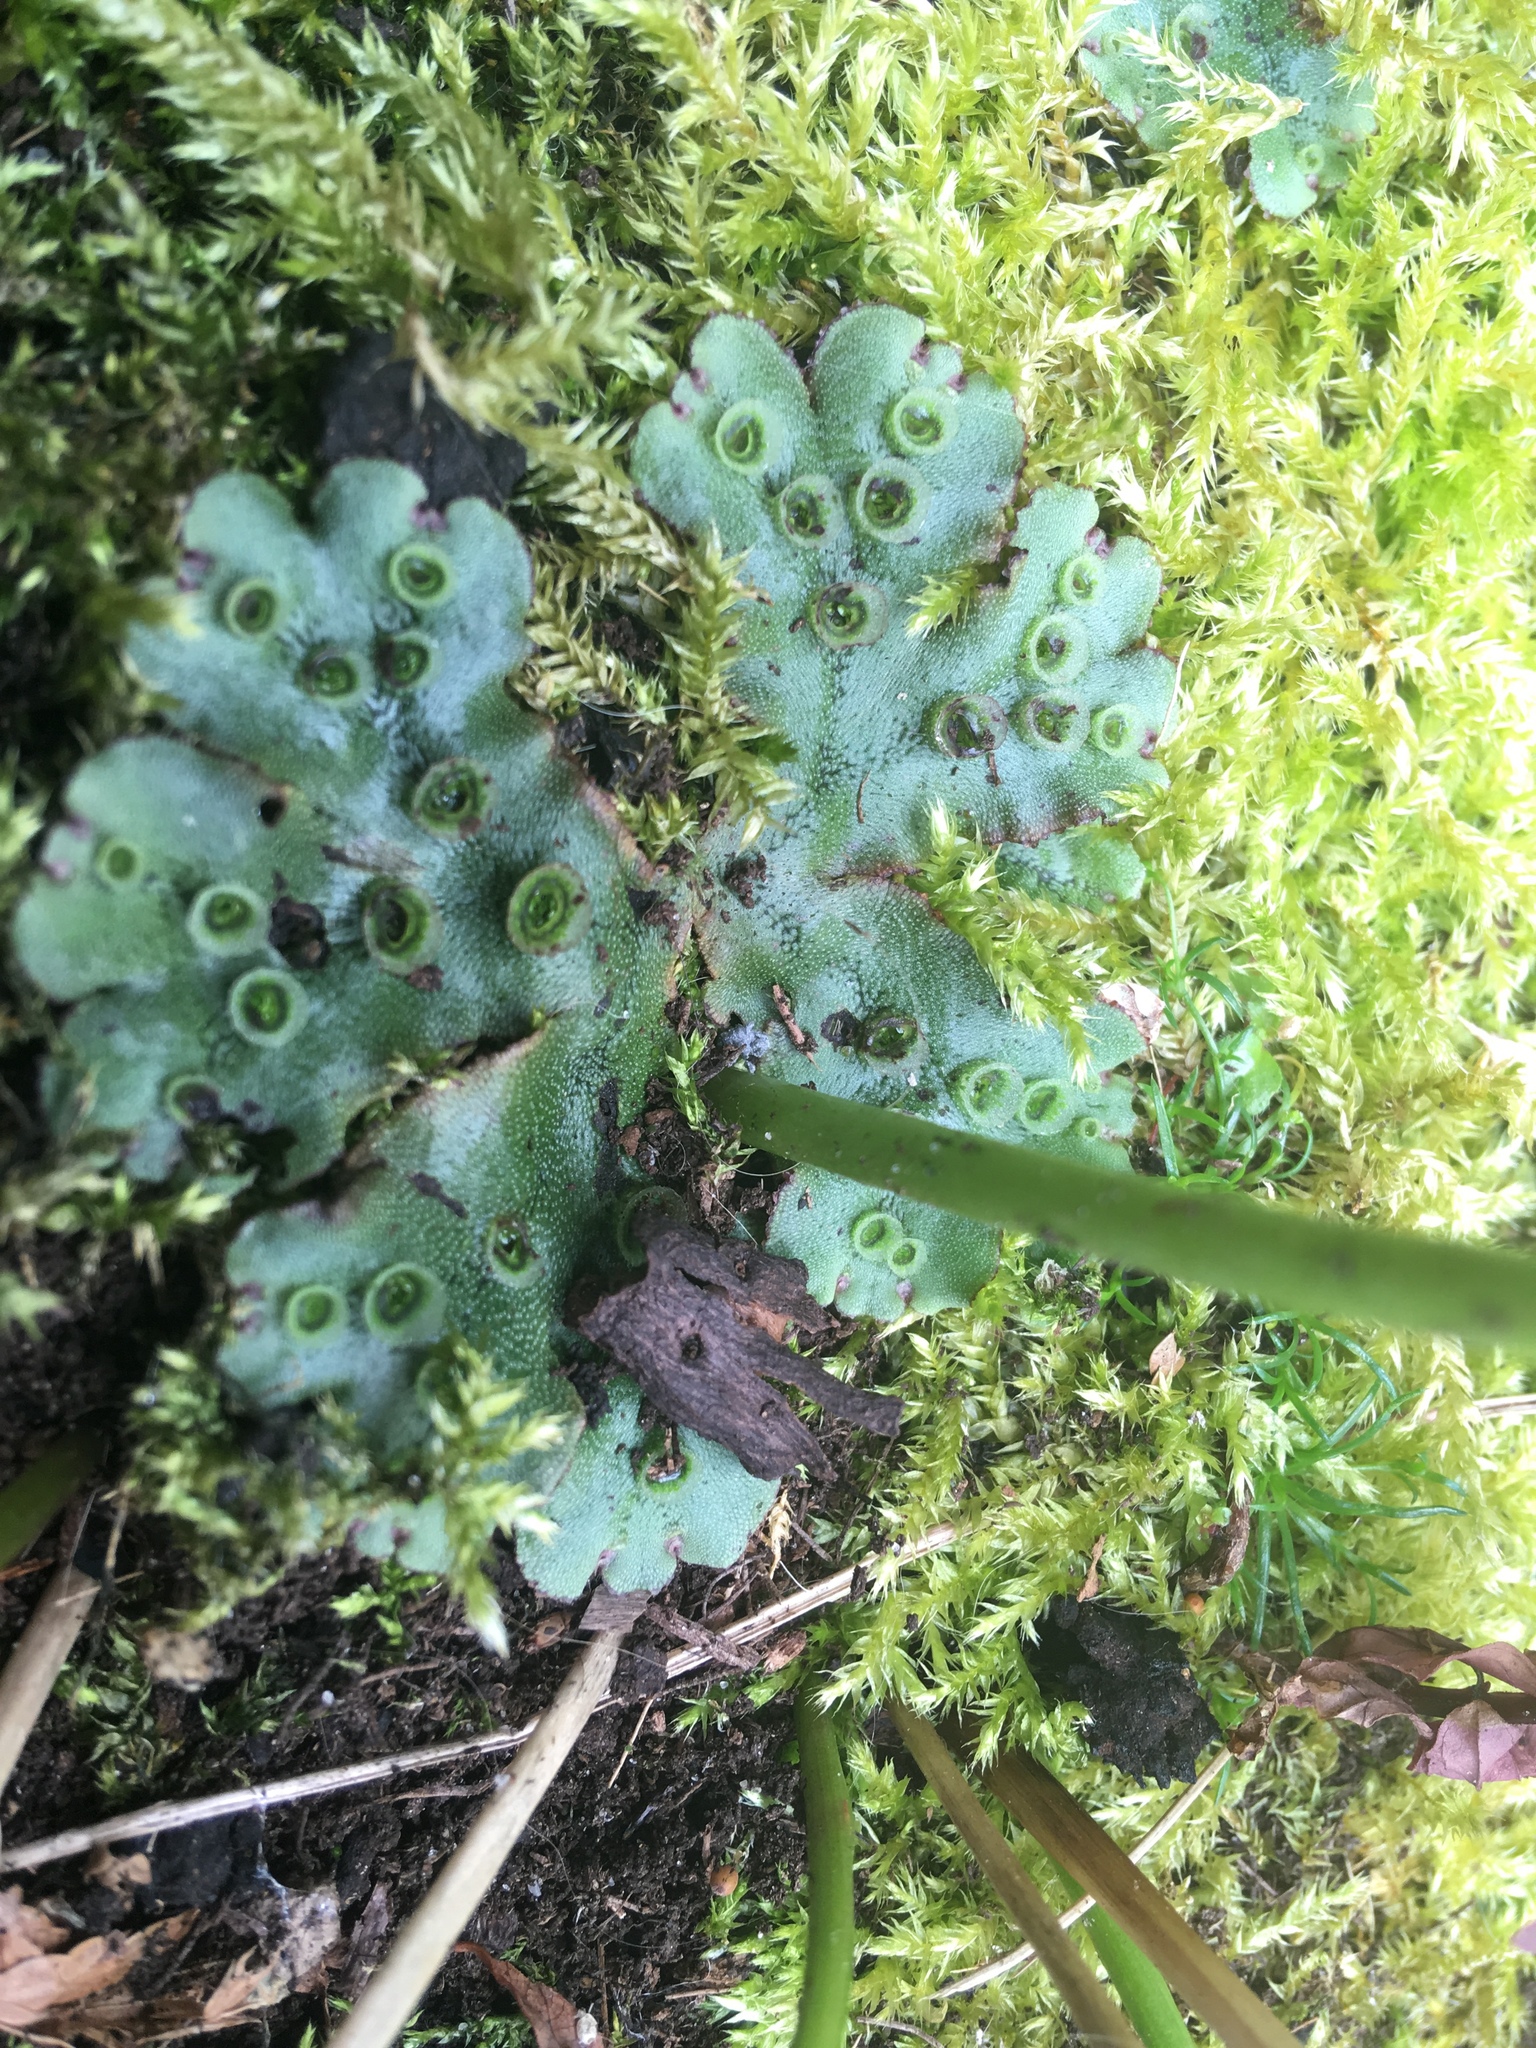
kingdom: Plantae
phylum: Marchantiophyta
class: Marchantiopsida
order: Marchantiales
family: Marchantiaceae
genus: Marchantia
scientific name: Marchantia polymorpha
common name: Common liverwort
